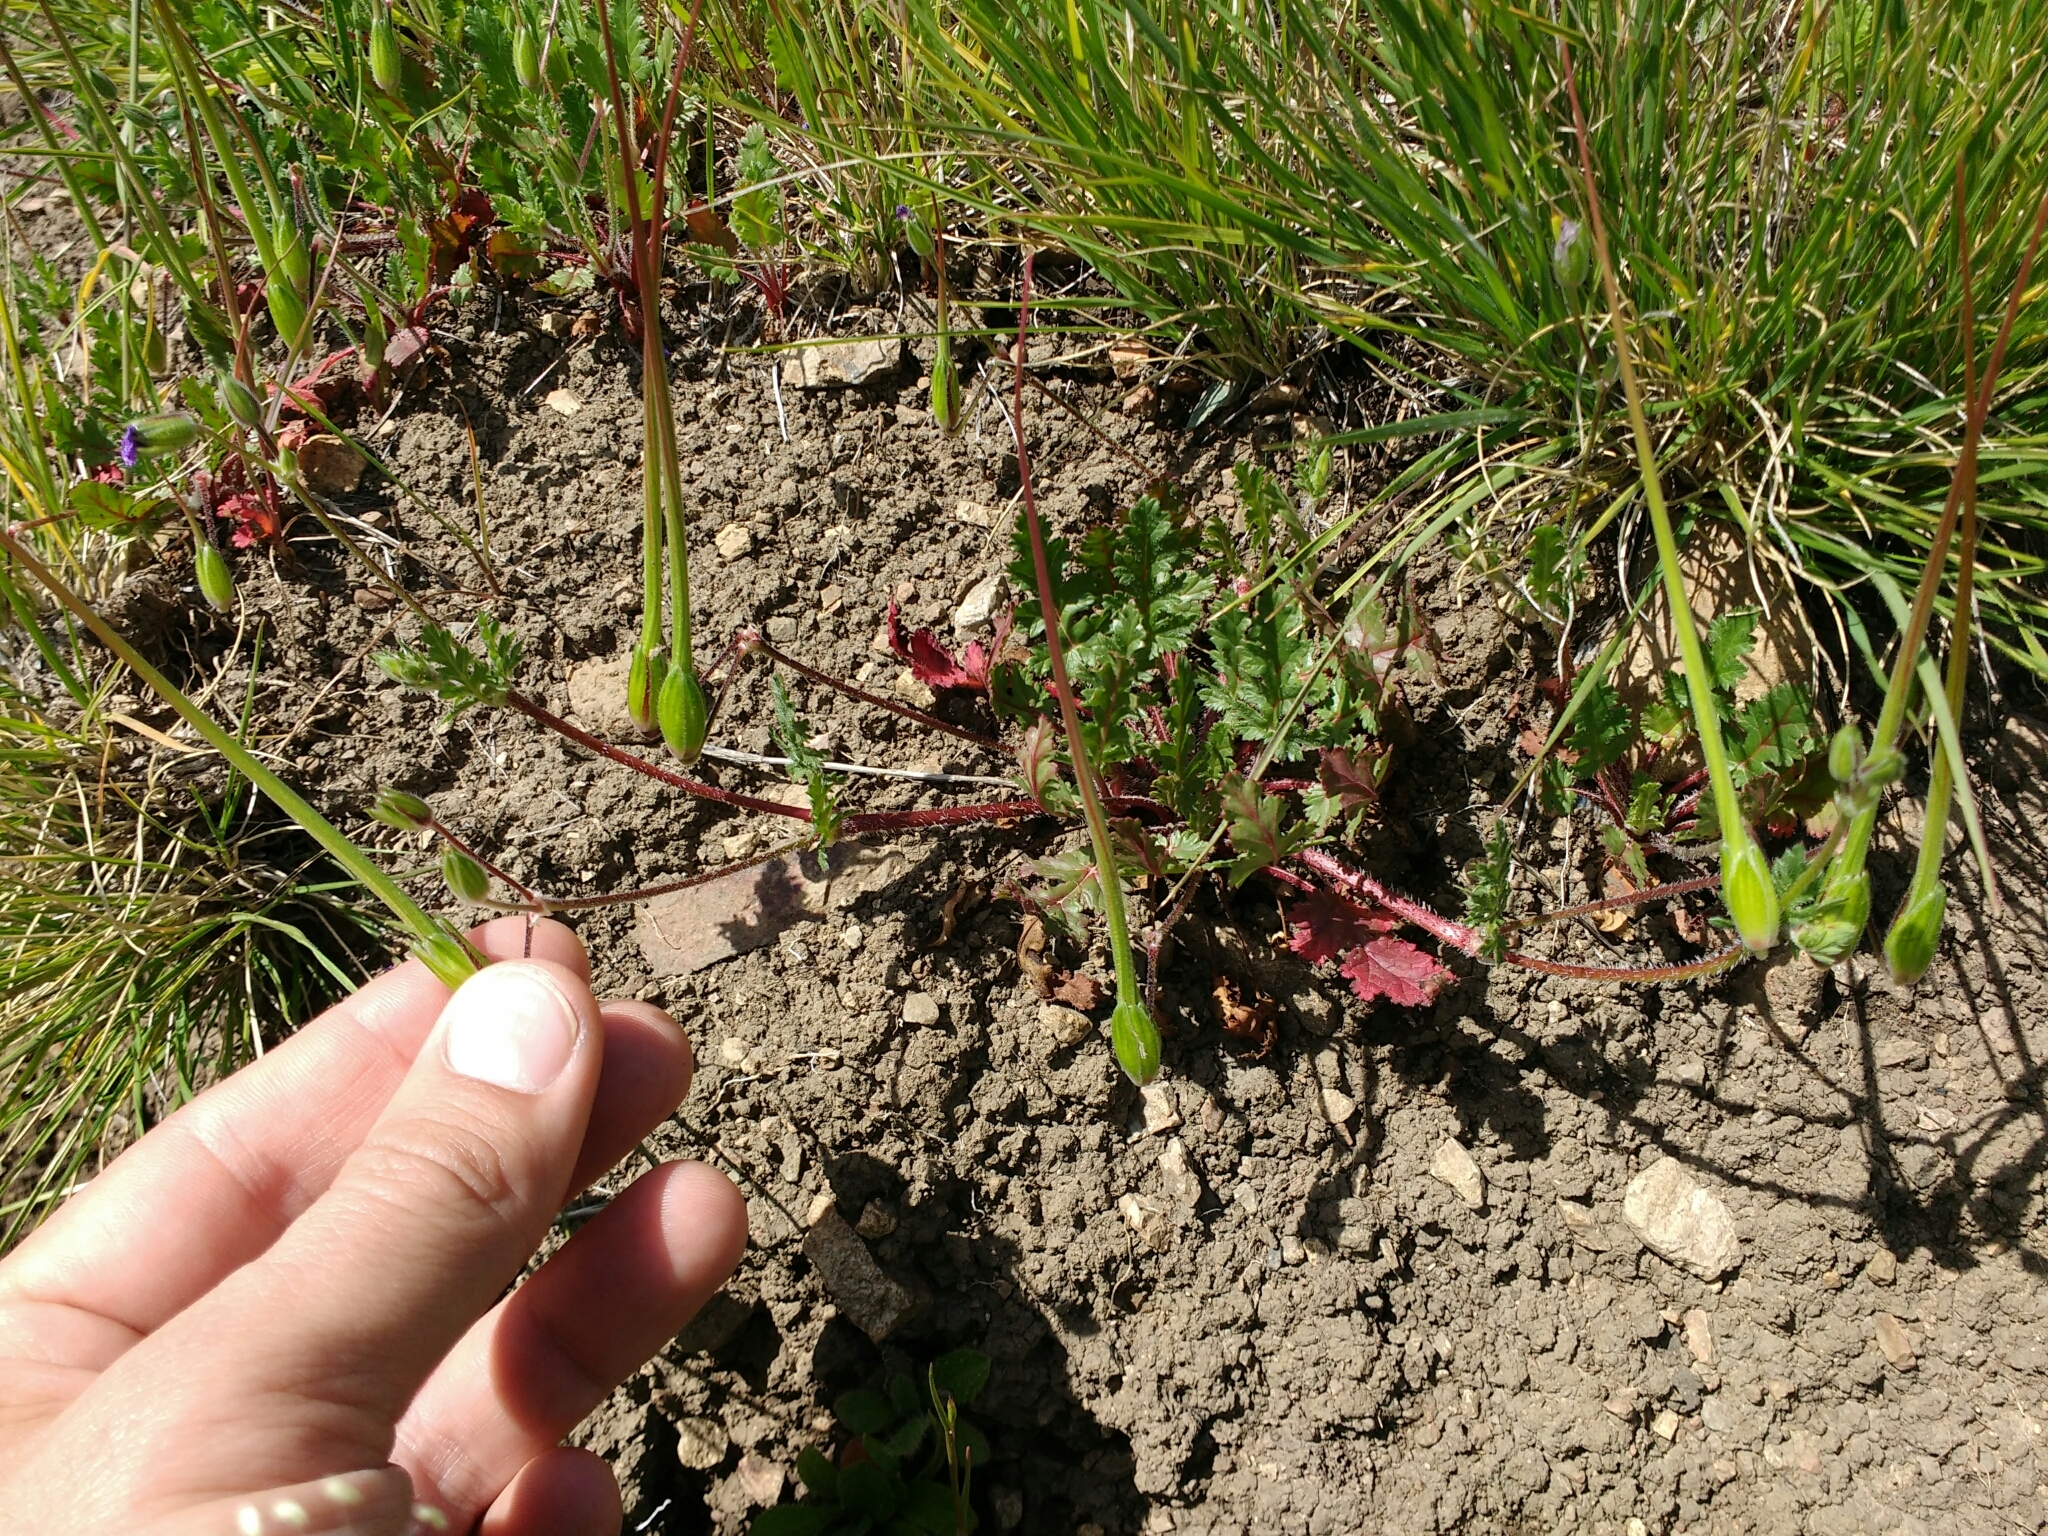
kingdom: Plantae
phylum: Tracheophyta
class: Magnoliopsida
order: Geraniales
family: Geraniaceae
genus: Erodium
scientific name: Erodium botrys
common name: Mediterranean stork's-bill
